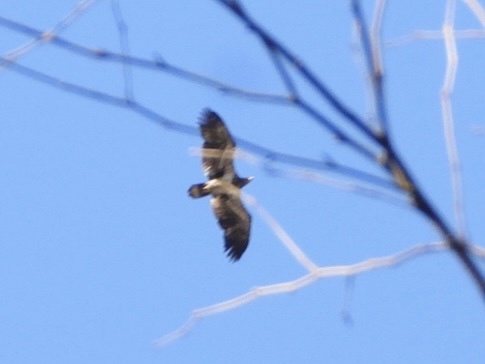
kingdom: Animalia
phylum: Chordata
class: Aves
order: Accipitriformes
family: Accipitridae
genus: Haliaeetus
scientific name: Haliaeetus leucocephalus
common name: Bald eagle
